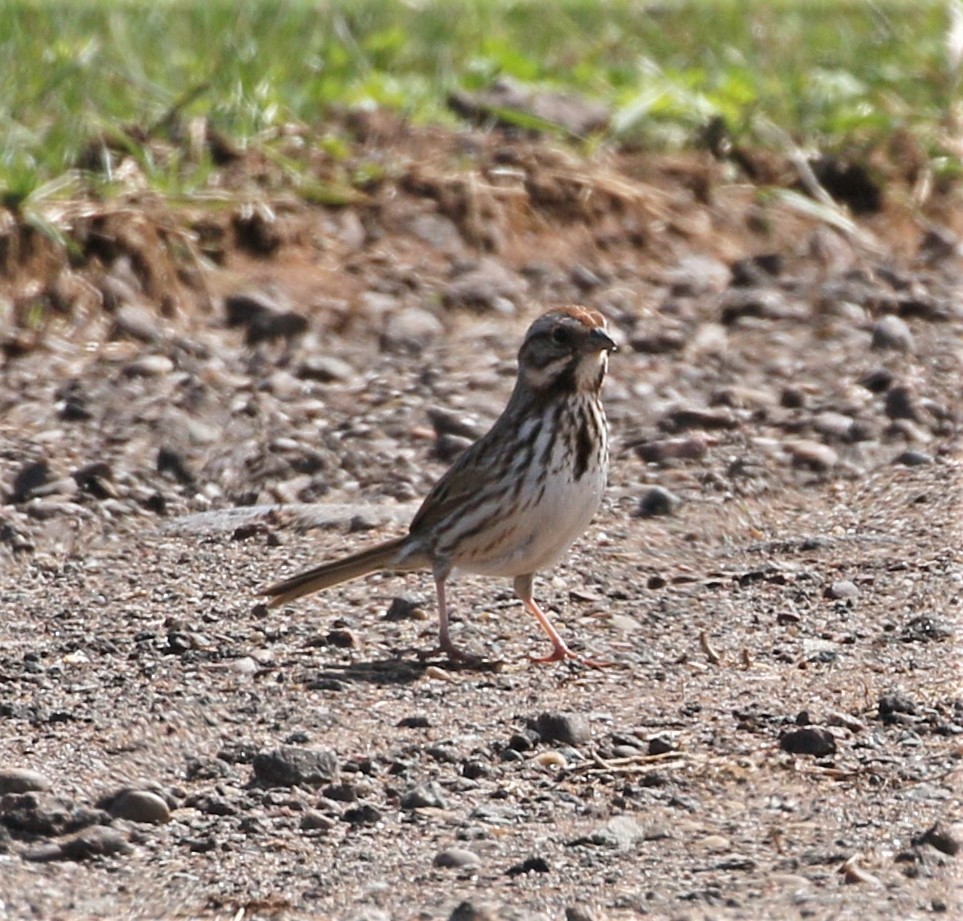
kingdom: Animalia
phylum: Chordata
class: Aves
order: Passeriformes
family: Passerellidae
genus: Melospiza
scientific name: Melospiza melodia
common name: Song sparrow
